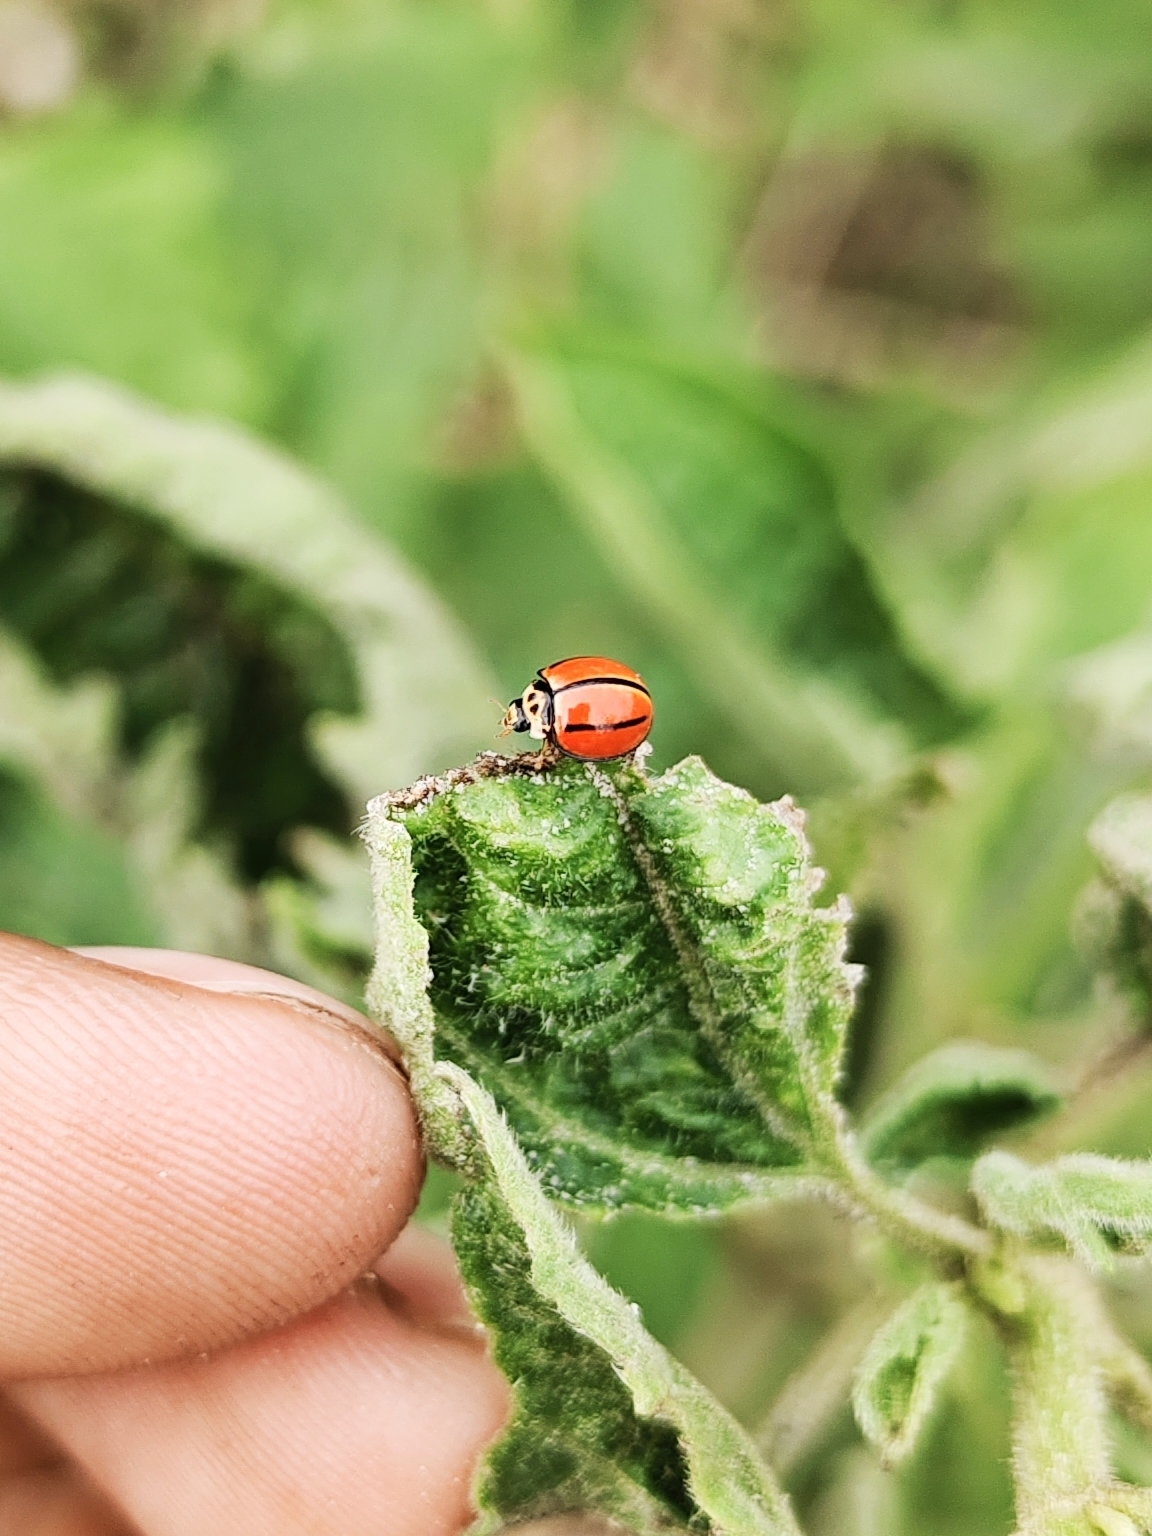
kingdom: Animalia
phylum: Arthropoda
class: Insecta
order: Coleoptera
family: Coccinellidae
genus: Micraspis
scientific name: Micraspis
